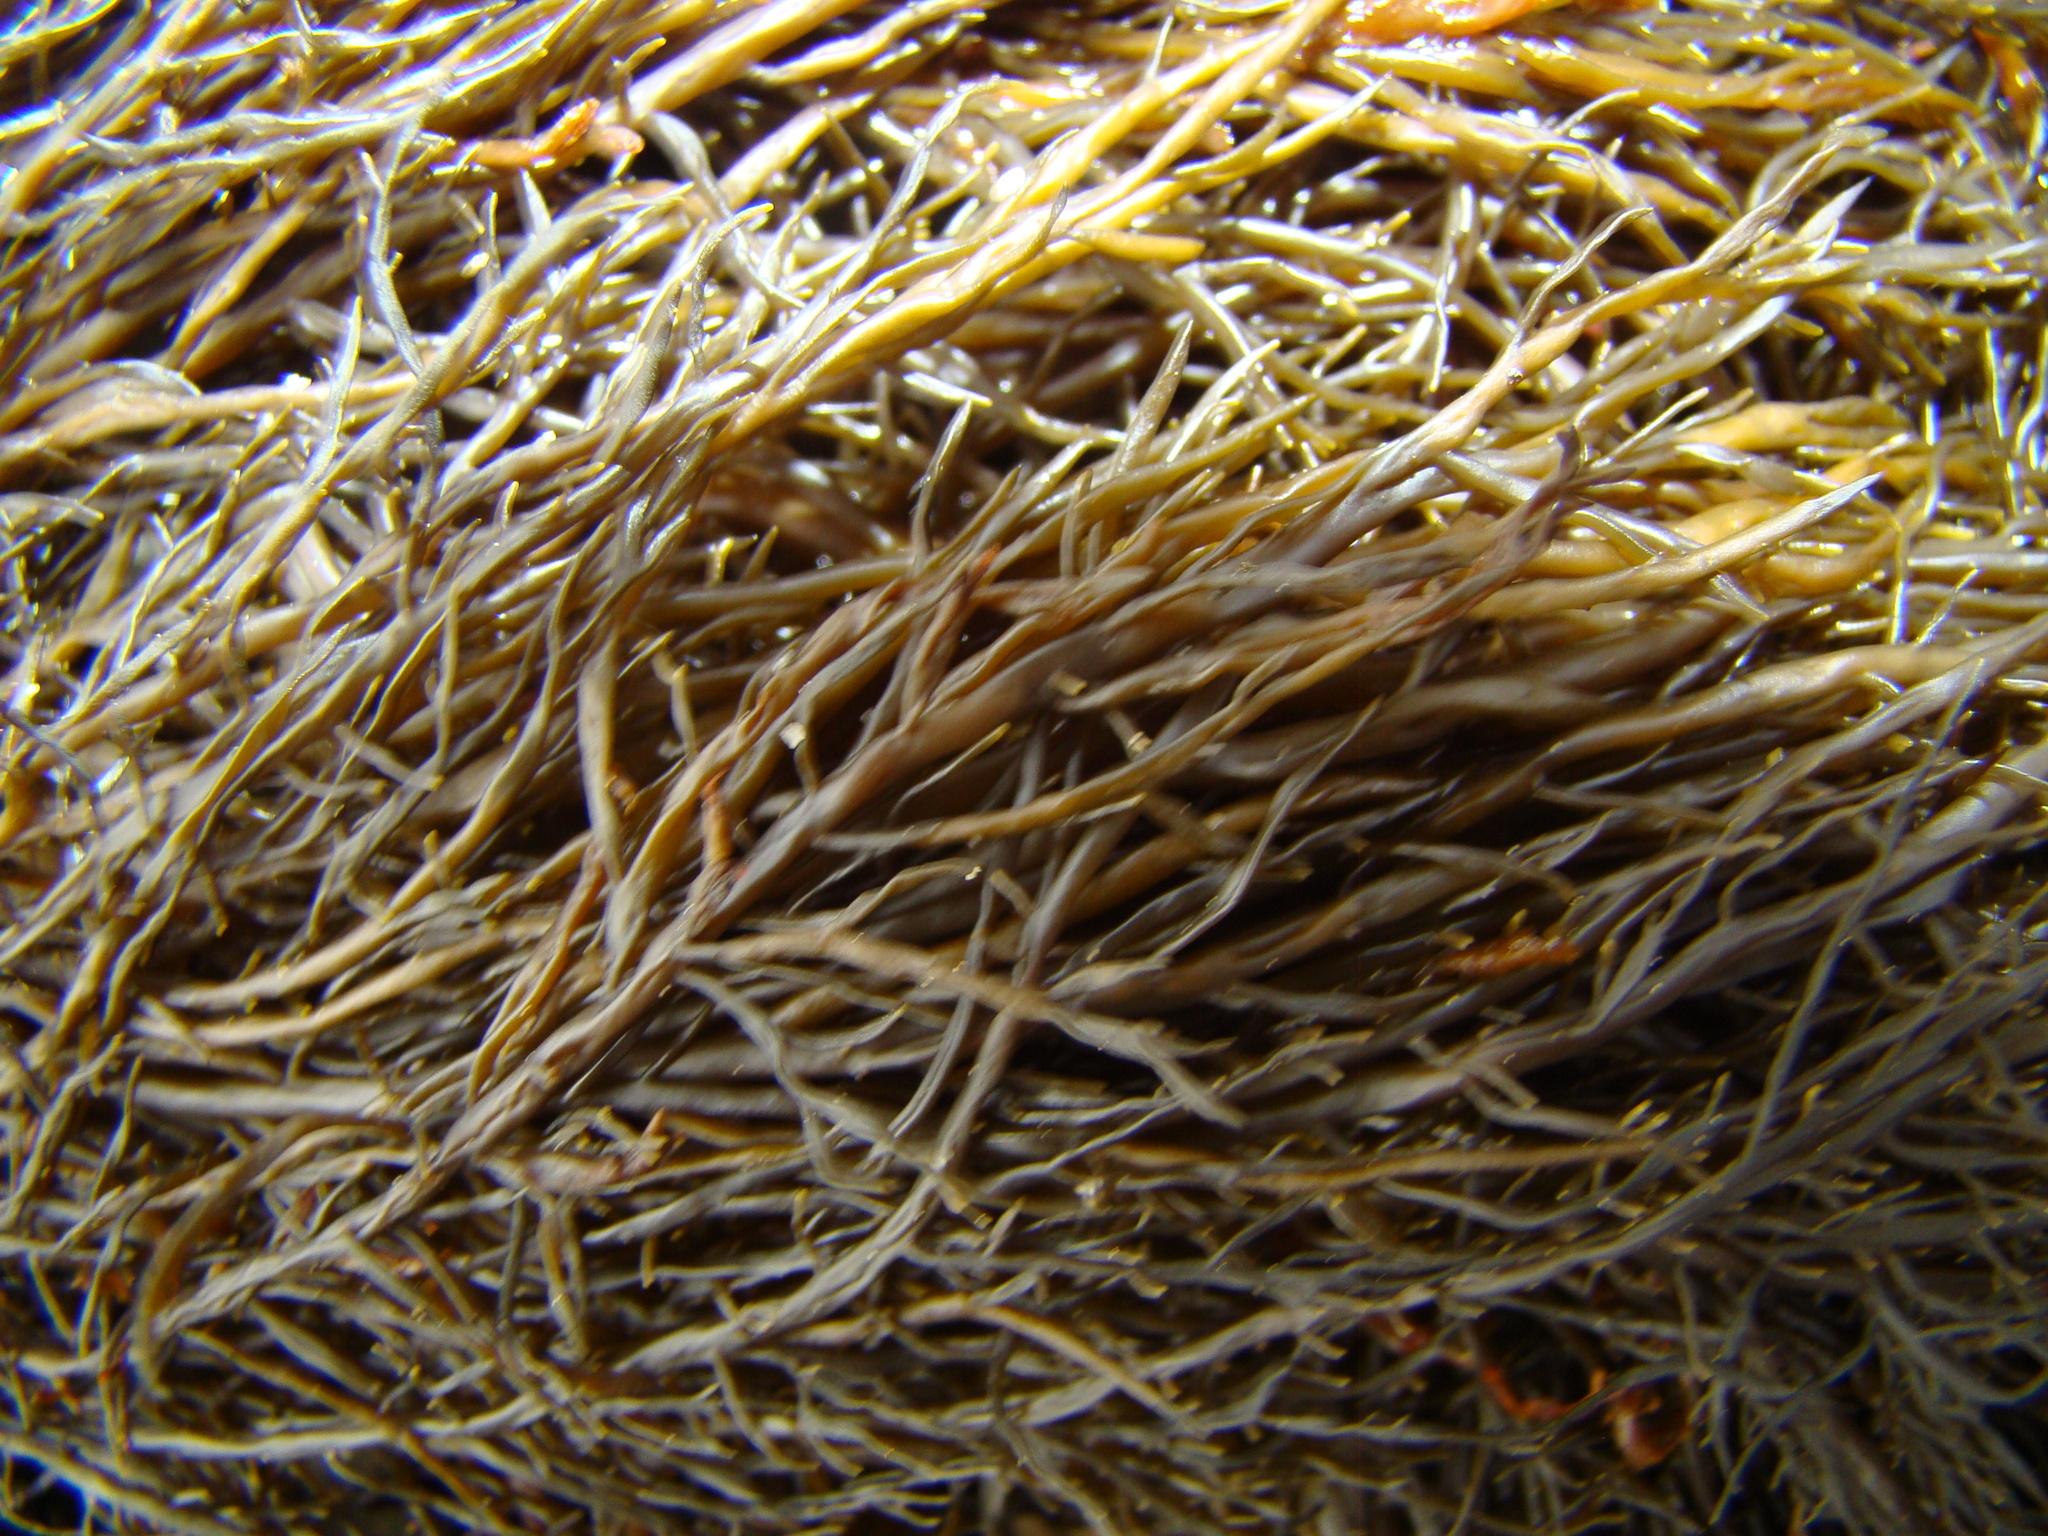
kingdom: Chromista
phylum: Ochrophyta
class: Phaeophyceae
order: Scytothamnales
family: Scytothamnaceae
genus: Scytothamnus
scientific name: Scytothamnus australis
